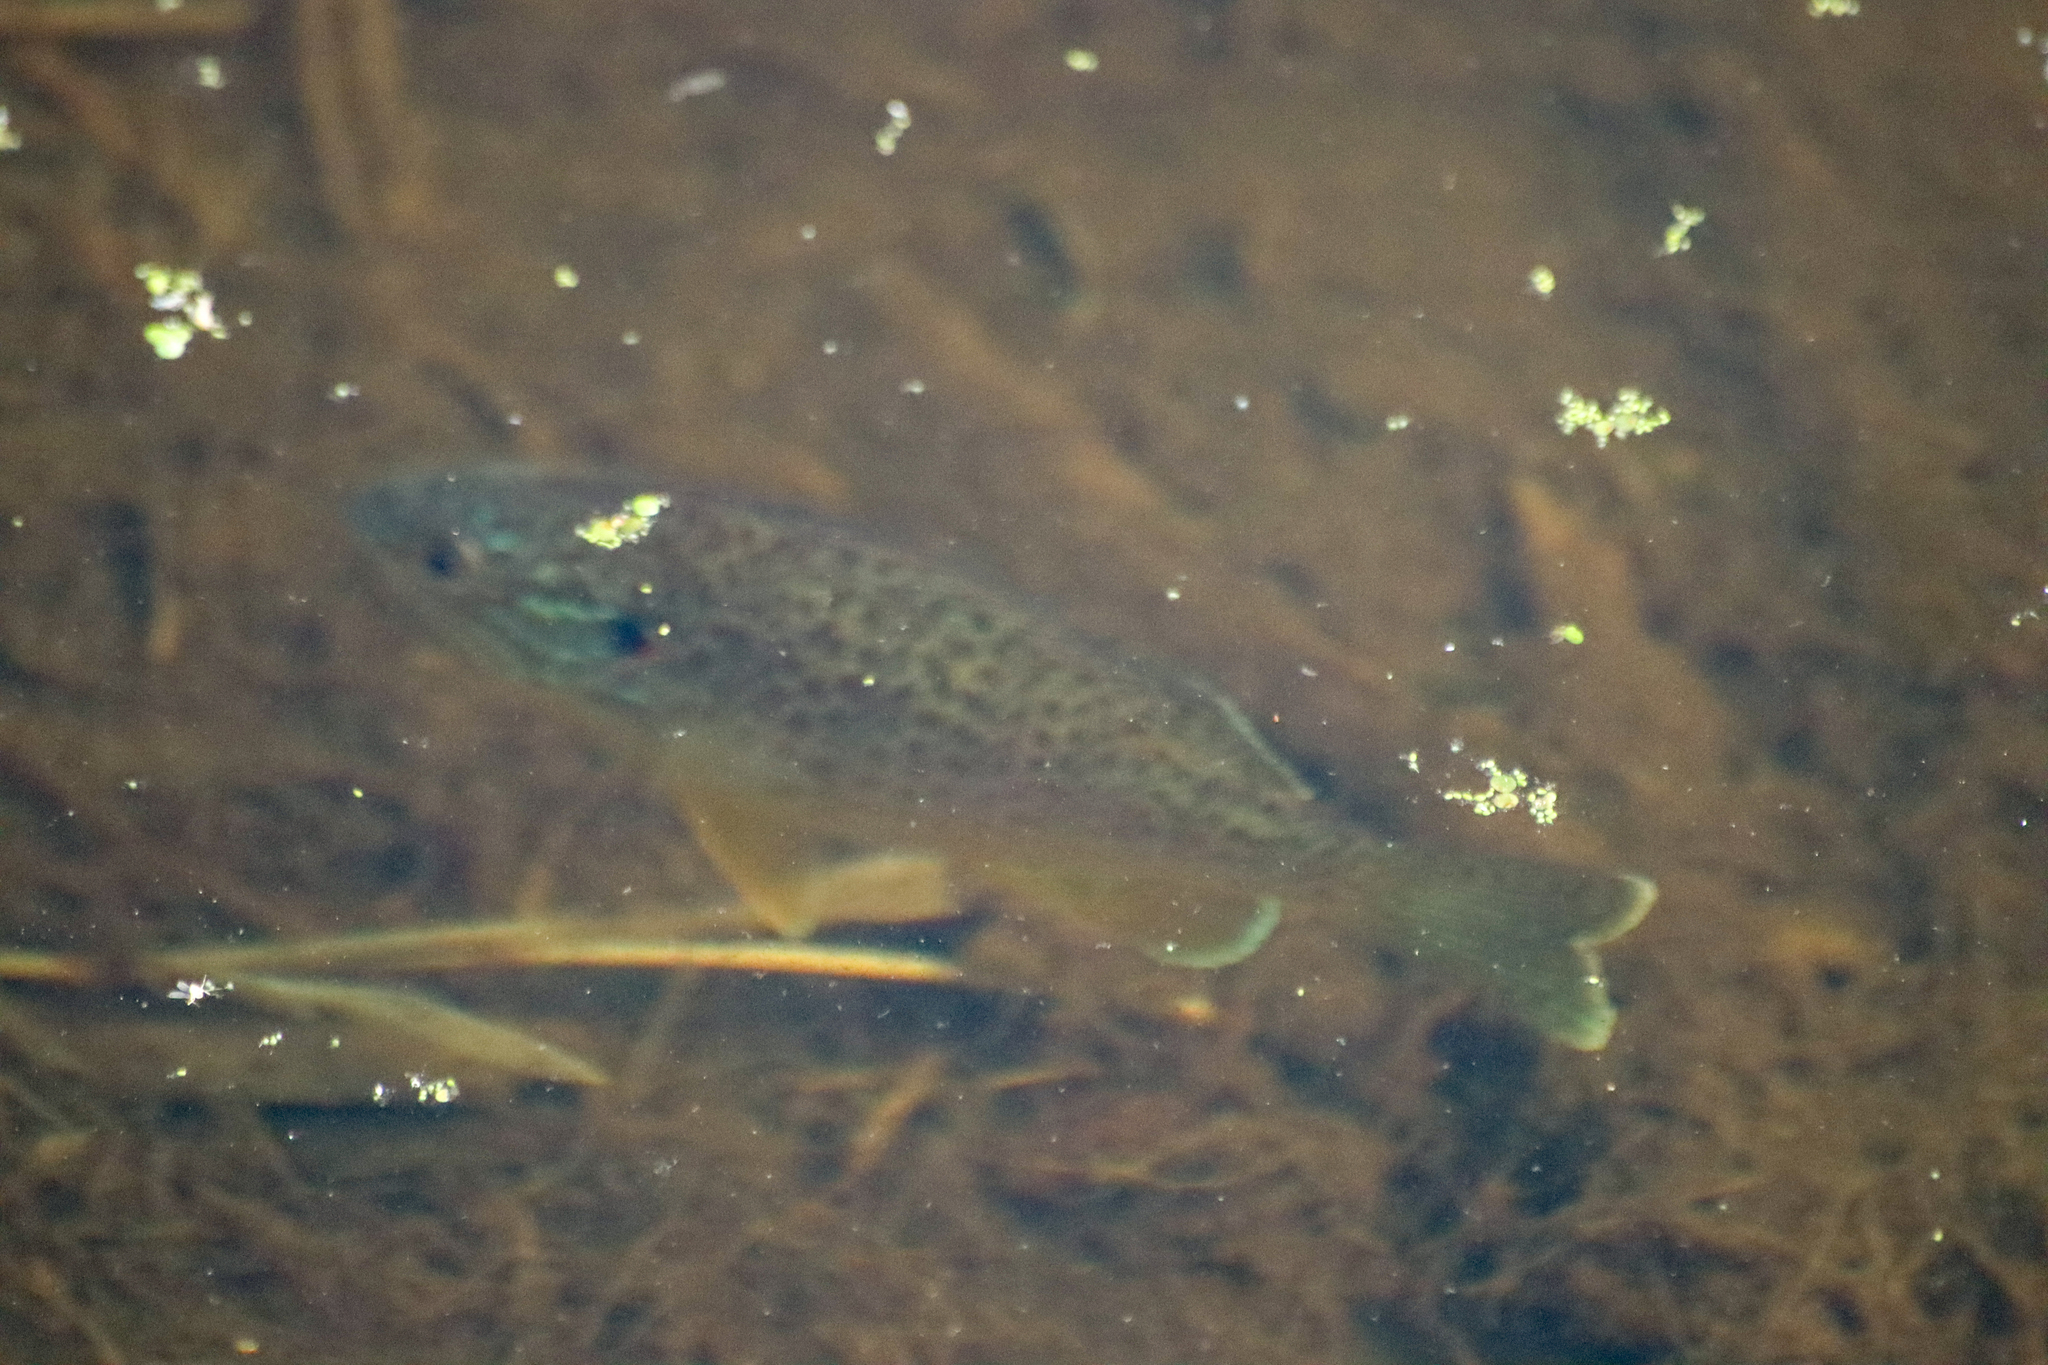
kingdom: Animalia
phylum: Chordata
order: Perciformes
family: Centrarchidae
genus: Lepomis
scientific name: Lepomis gibbosus
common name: Pumpkinseed
